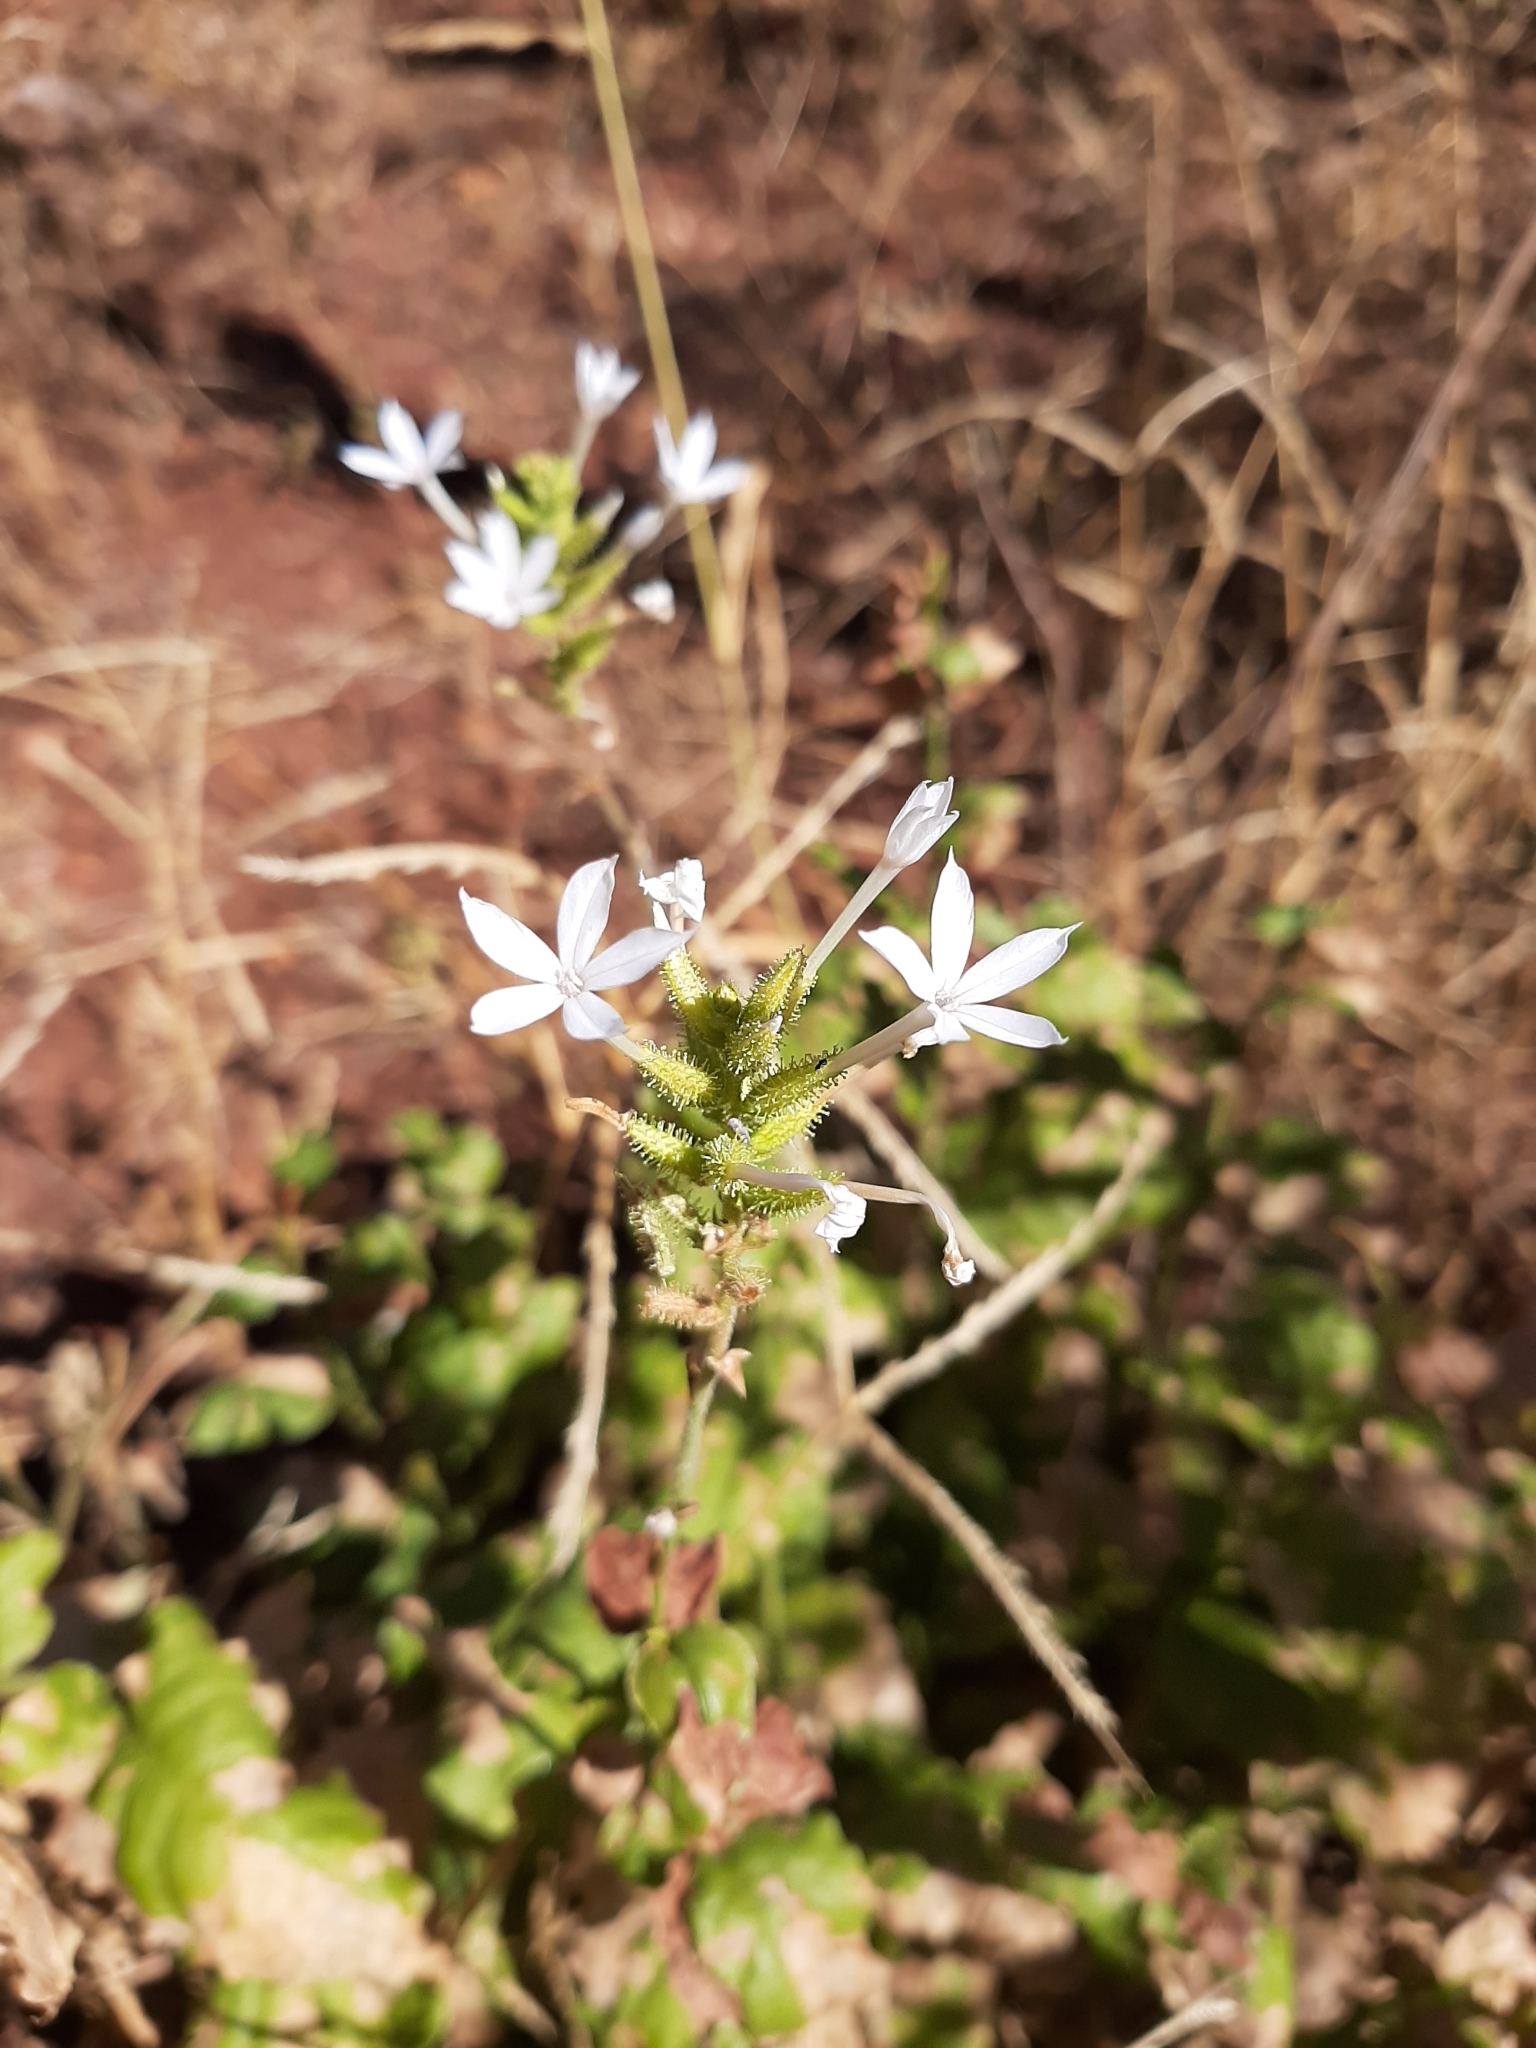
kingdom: Plantae
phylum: Tracheophyta
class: Magnoliopsida
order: Caryophyllales
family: Plumbaginaceae
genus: Plumbago
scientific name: Plumbago zeylanica
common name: Doctorbush
